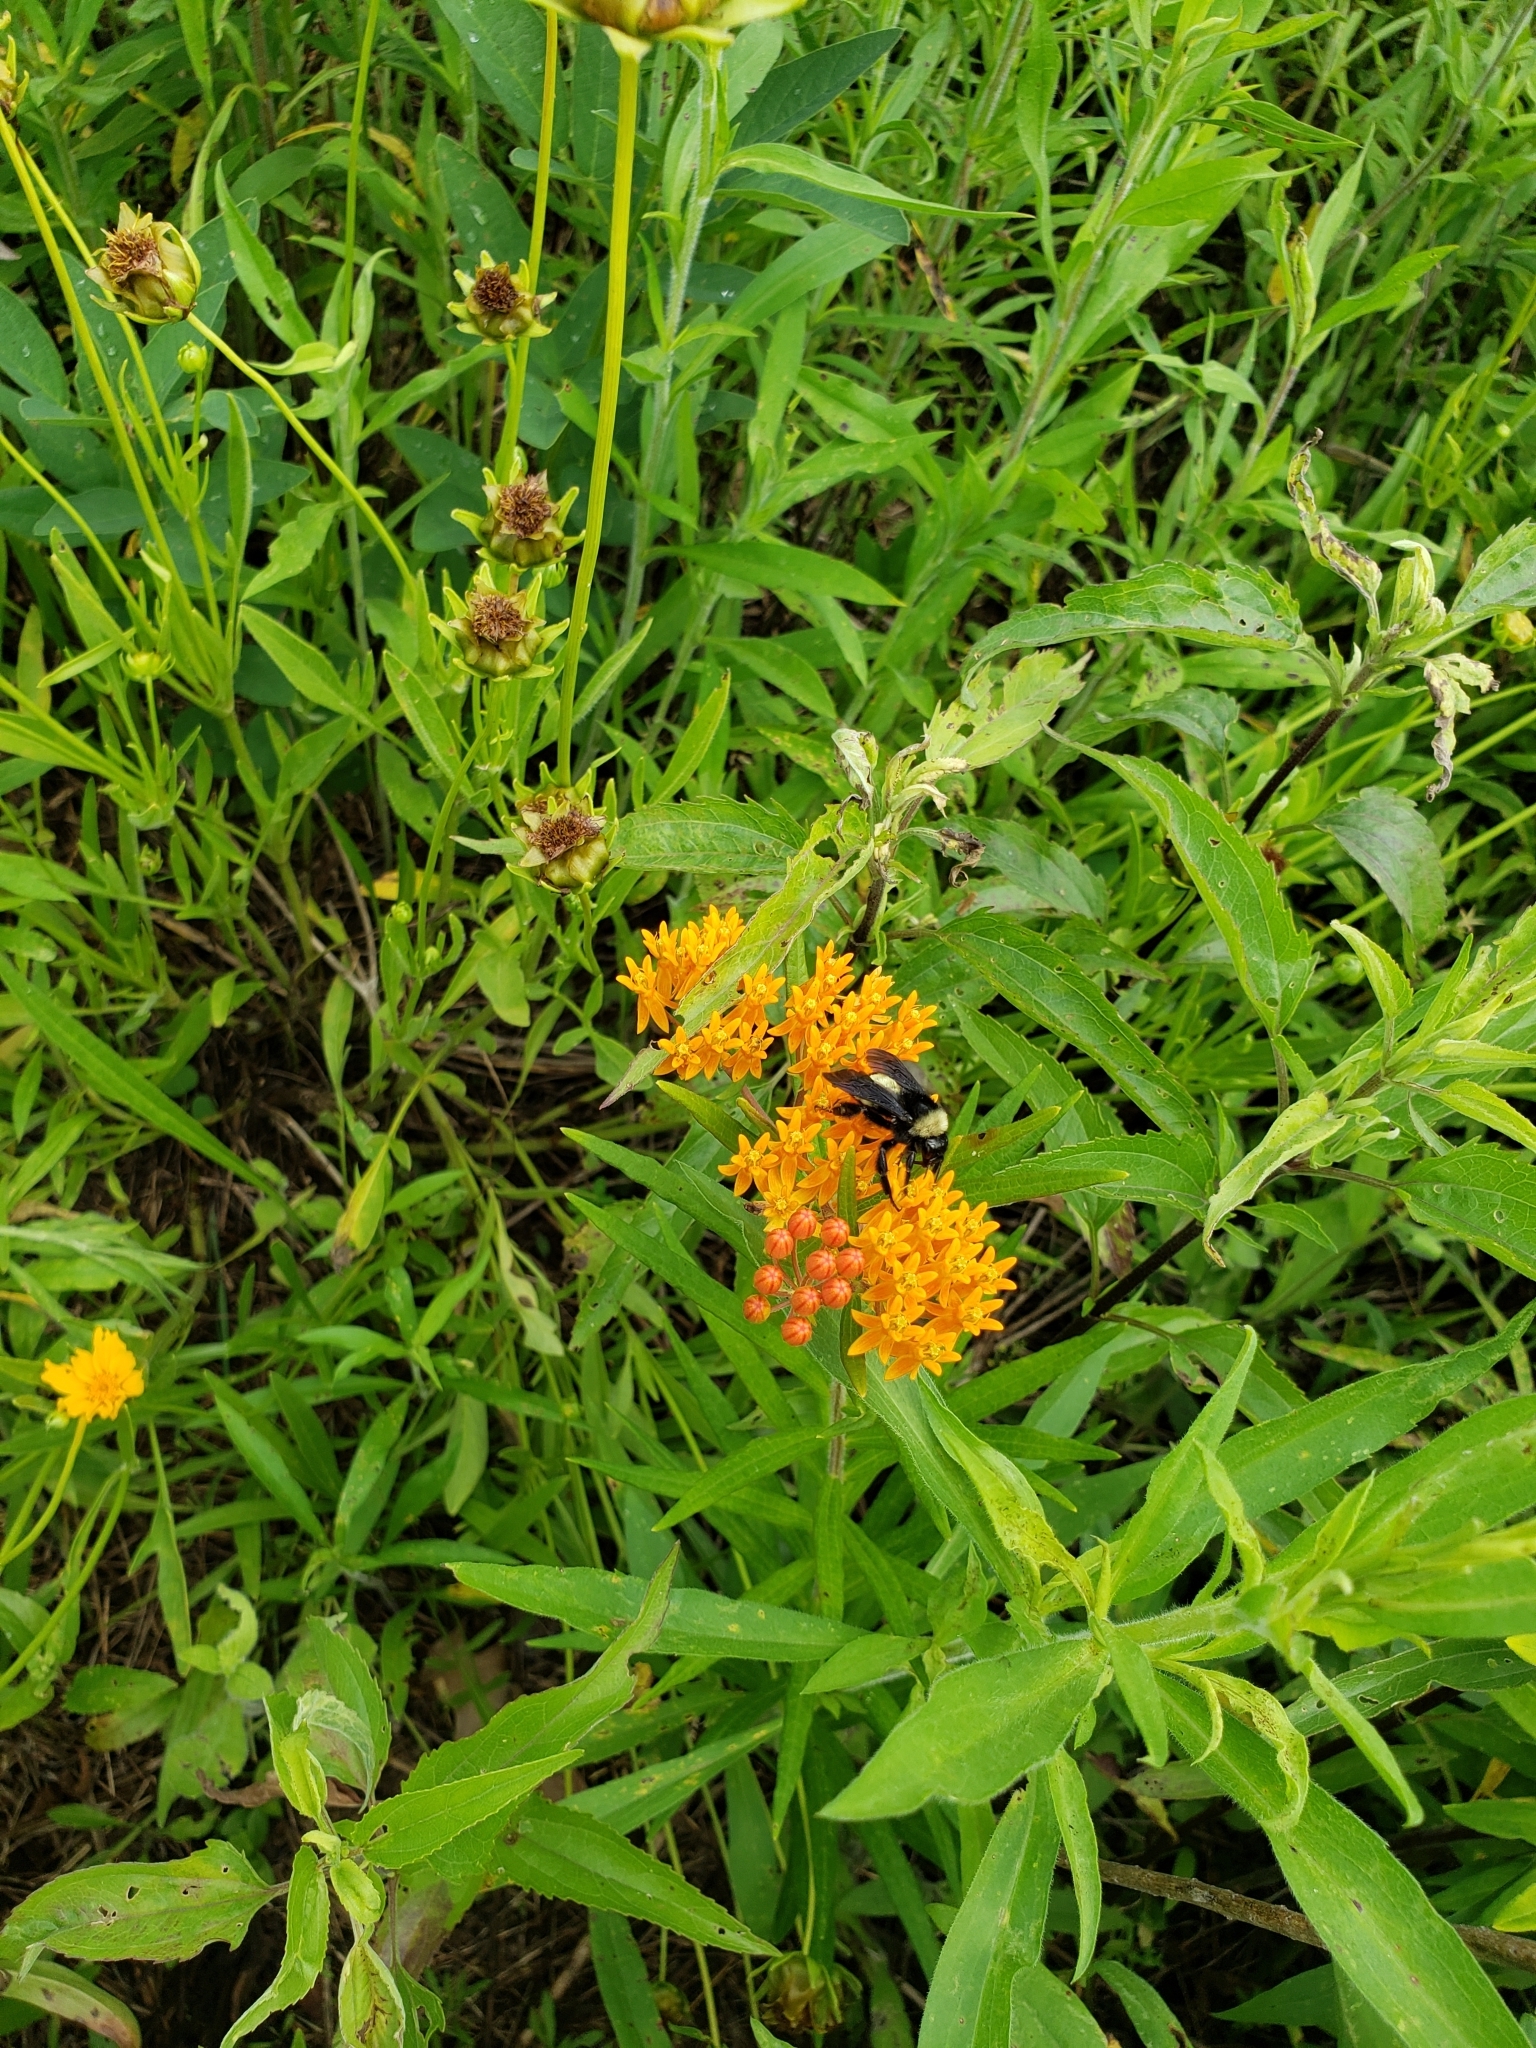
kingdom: Animalia
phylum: Arthropoda
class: Insecta
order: Hymenoptera
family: Apidae
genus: Bombus
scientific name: Bombus pensylvanicus
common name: Bumble bee
